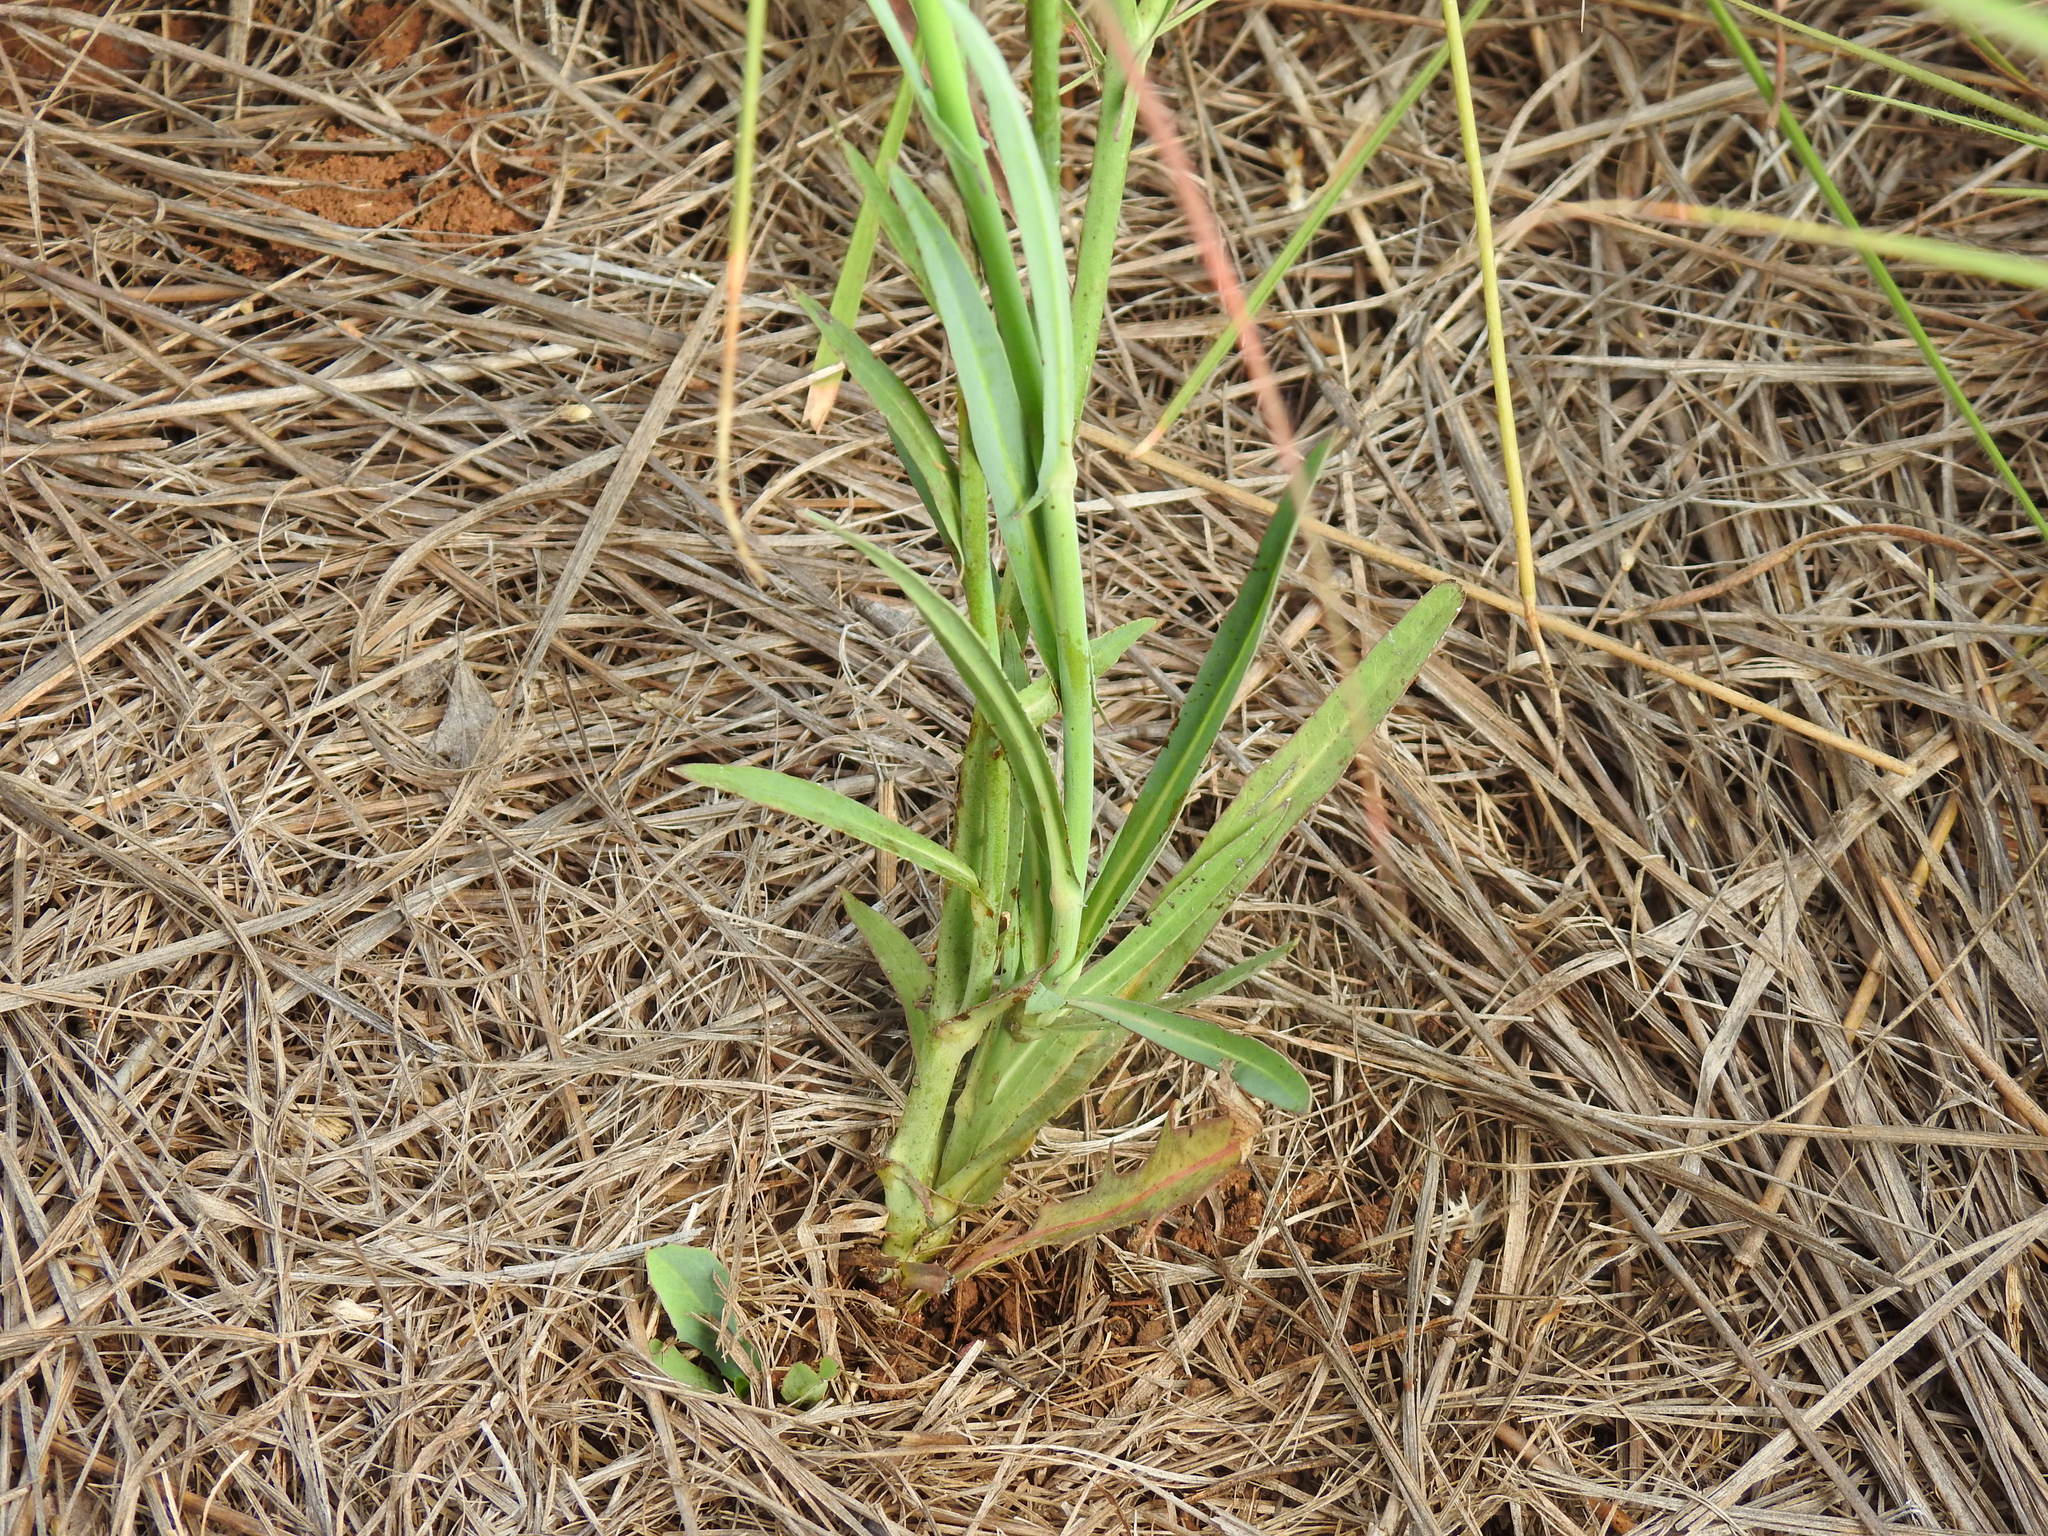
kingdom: Plantae
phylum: Tracheophyta
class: Magnoliopsida
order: Asterales
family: Asteraceae
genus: Lactuca
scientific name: Lactuca inermis
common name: Wild lettuce
